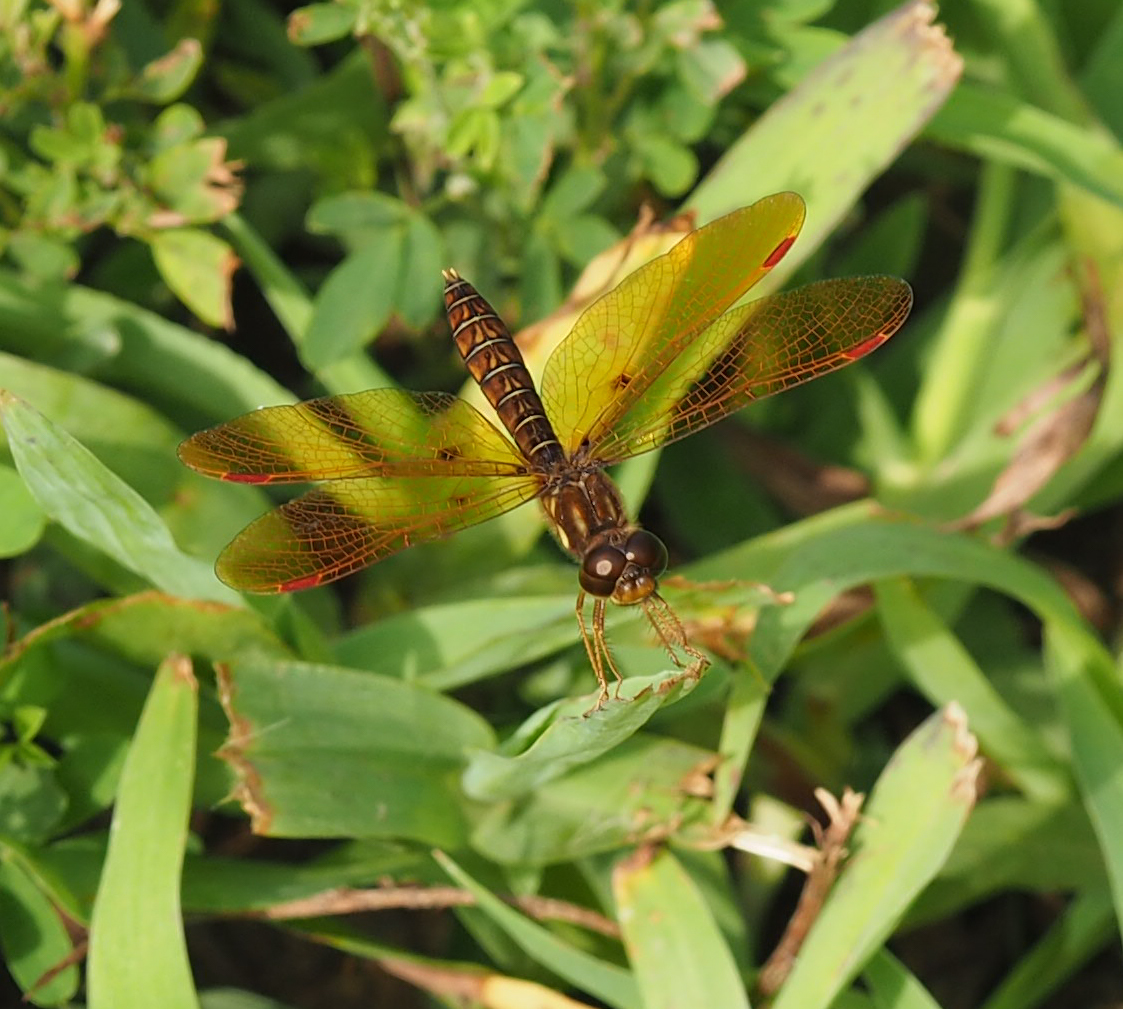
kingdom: Animalia
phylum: Arthropoda
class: Insecta
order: Odonata
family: Libellulidae
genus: Perithemis
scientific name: Perithemis tenera
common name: Eastern amberwing
